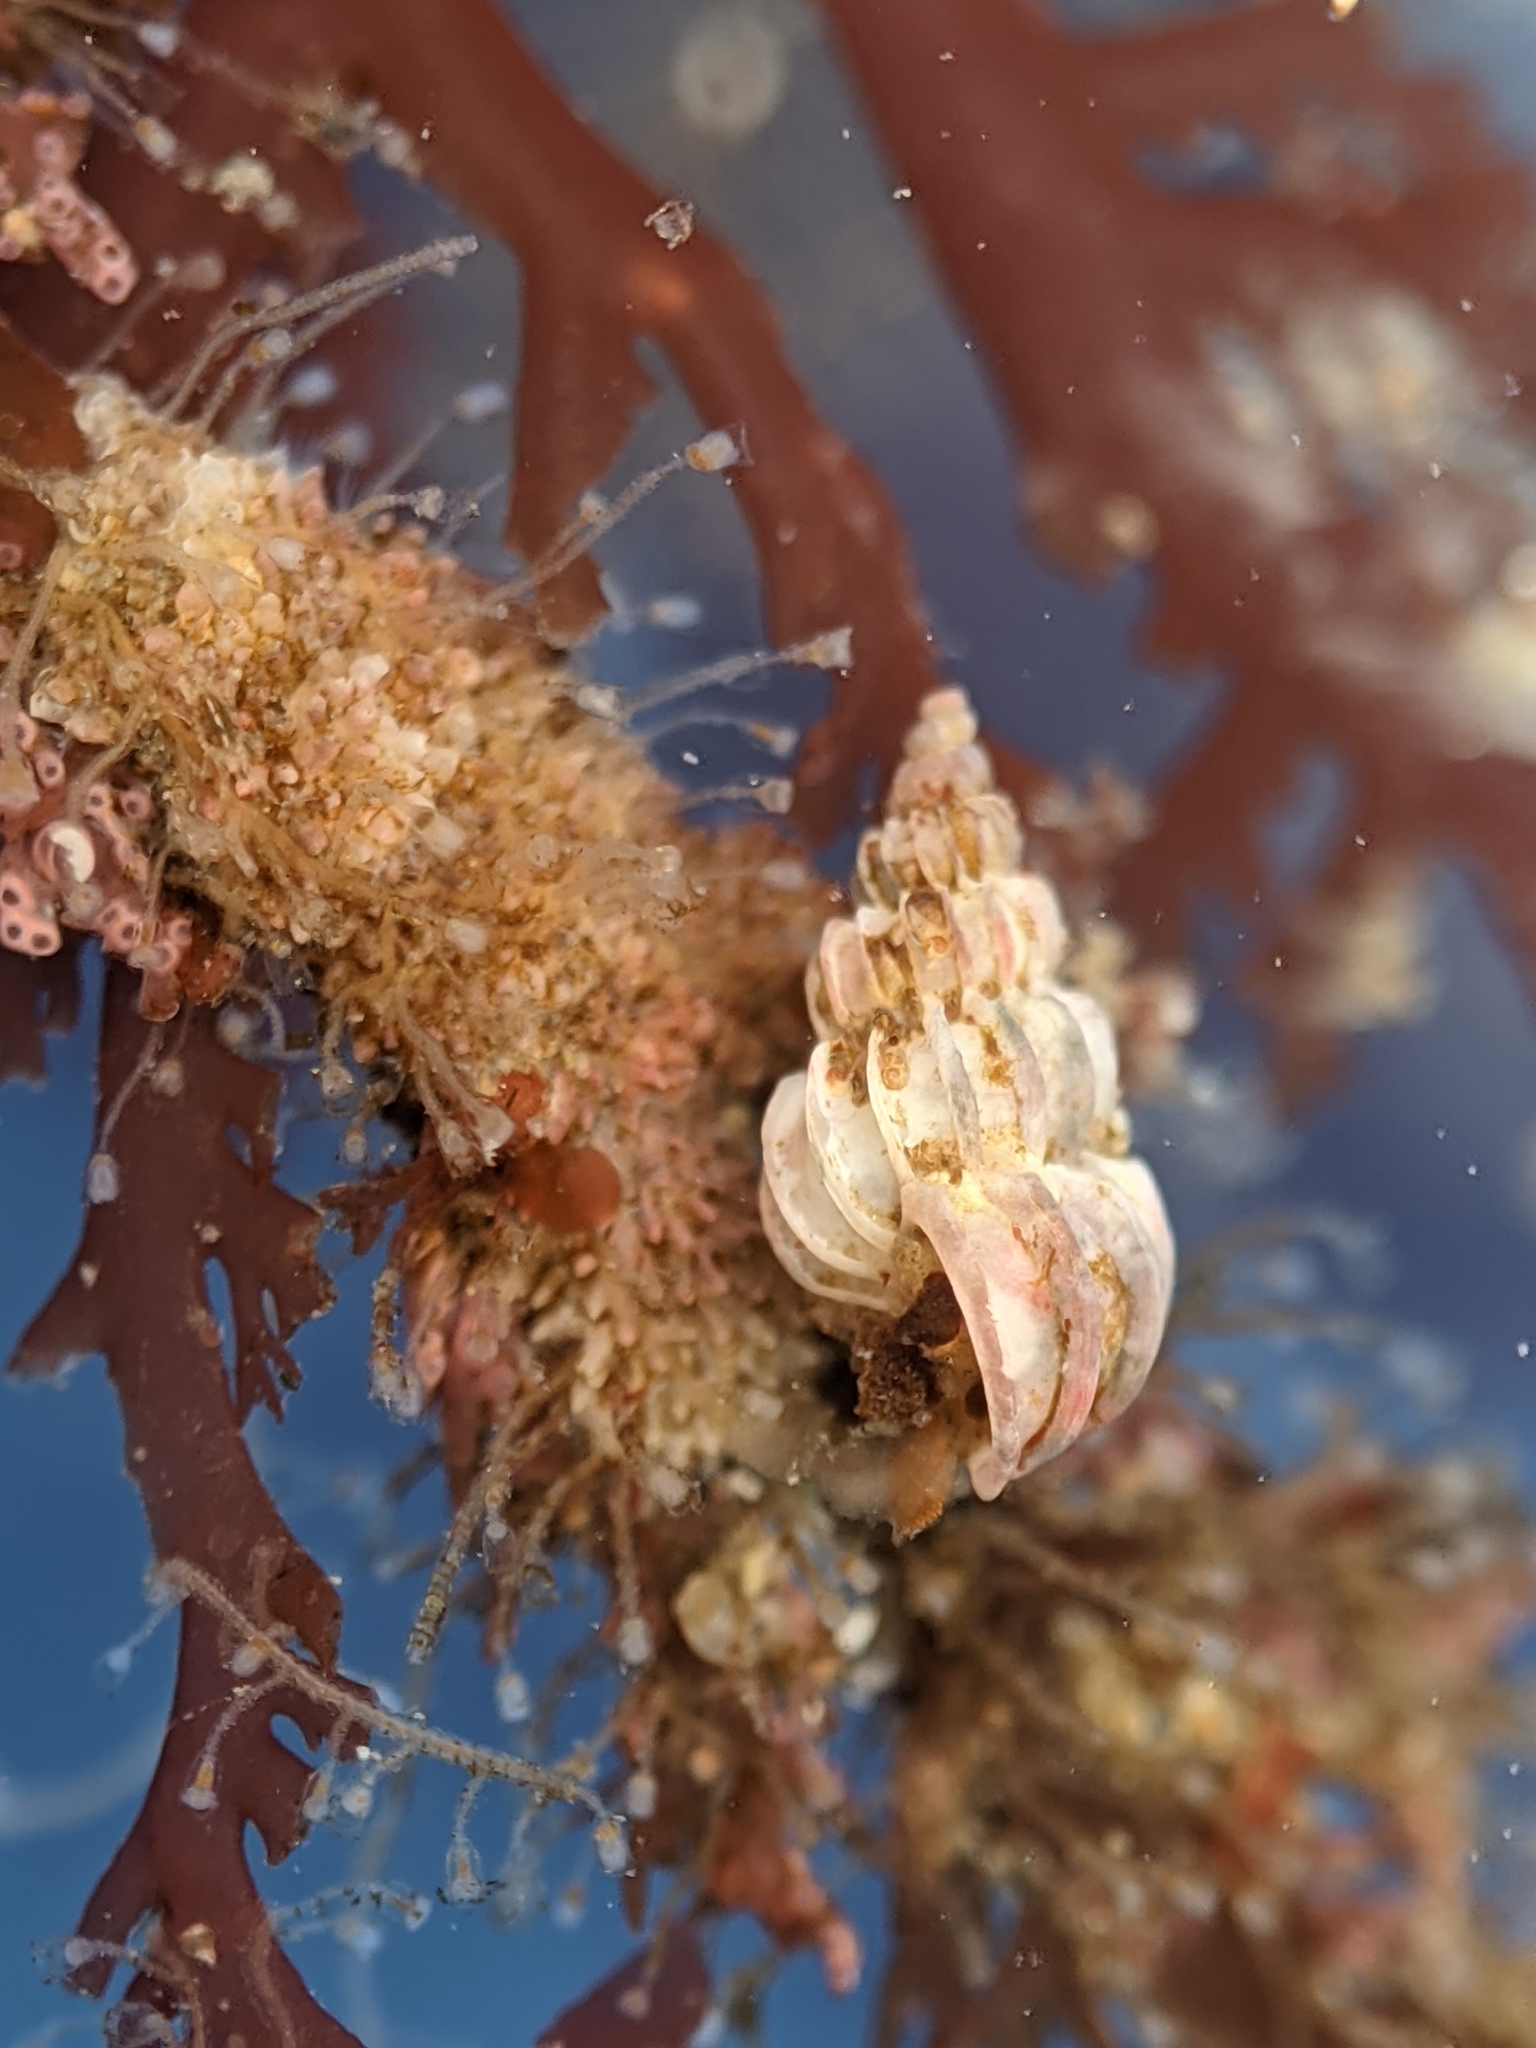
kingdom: Animalia
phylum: Mollusca
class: Gastropoda
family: Epitoniidae
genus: Epitonium
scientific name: Epitonium tinctum
